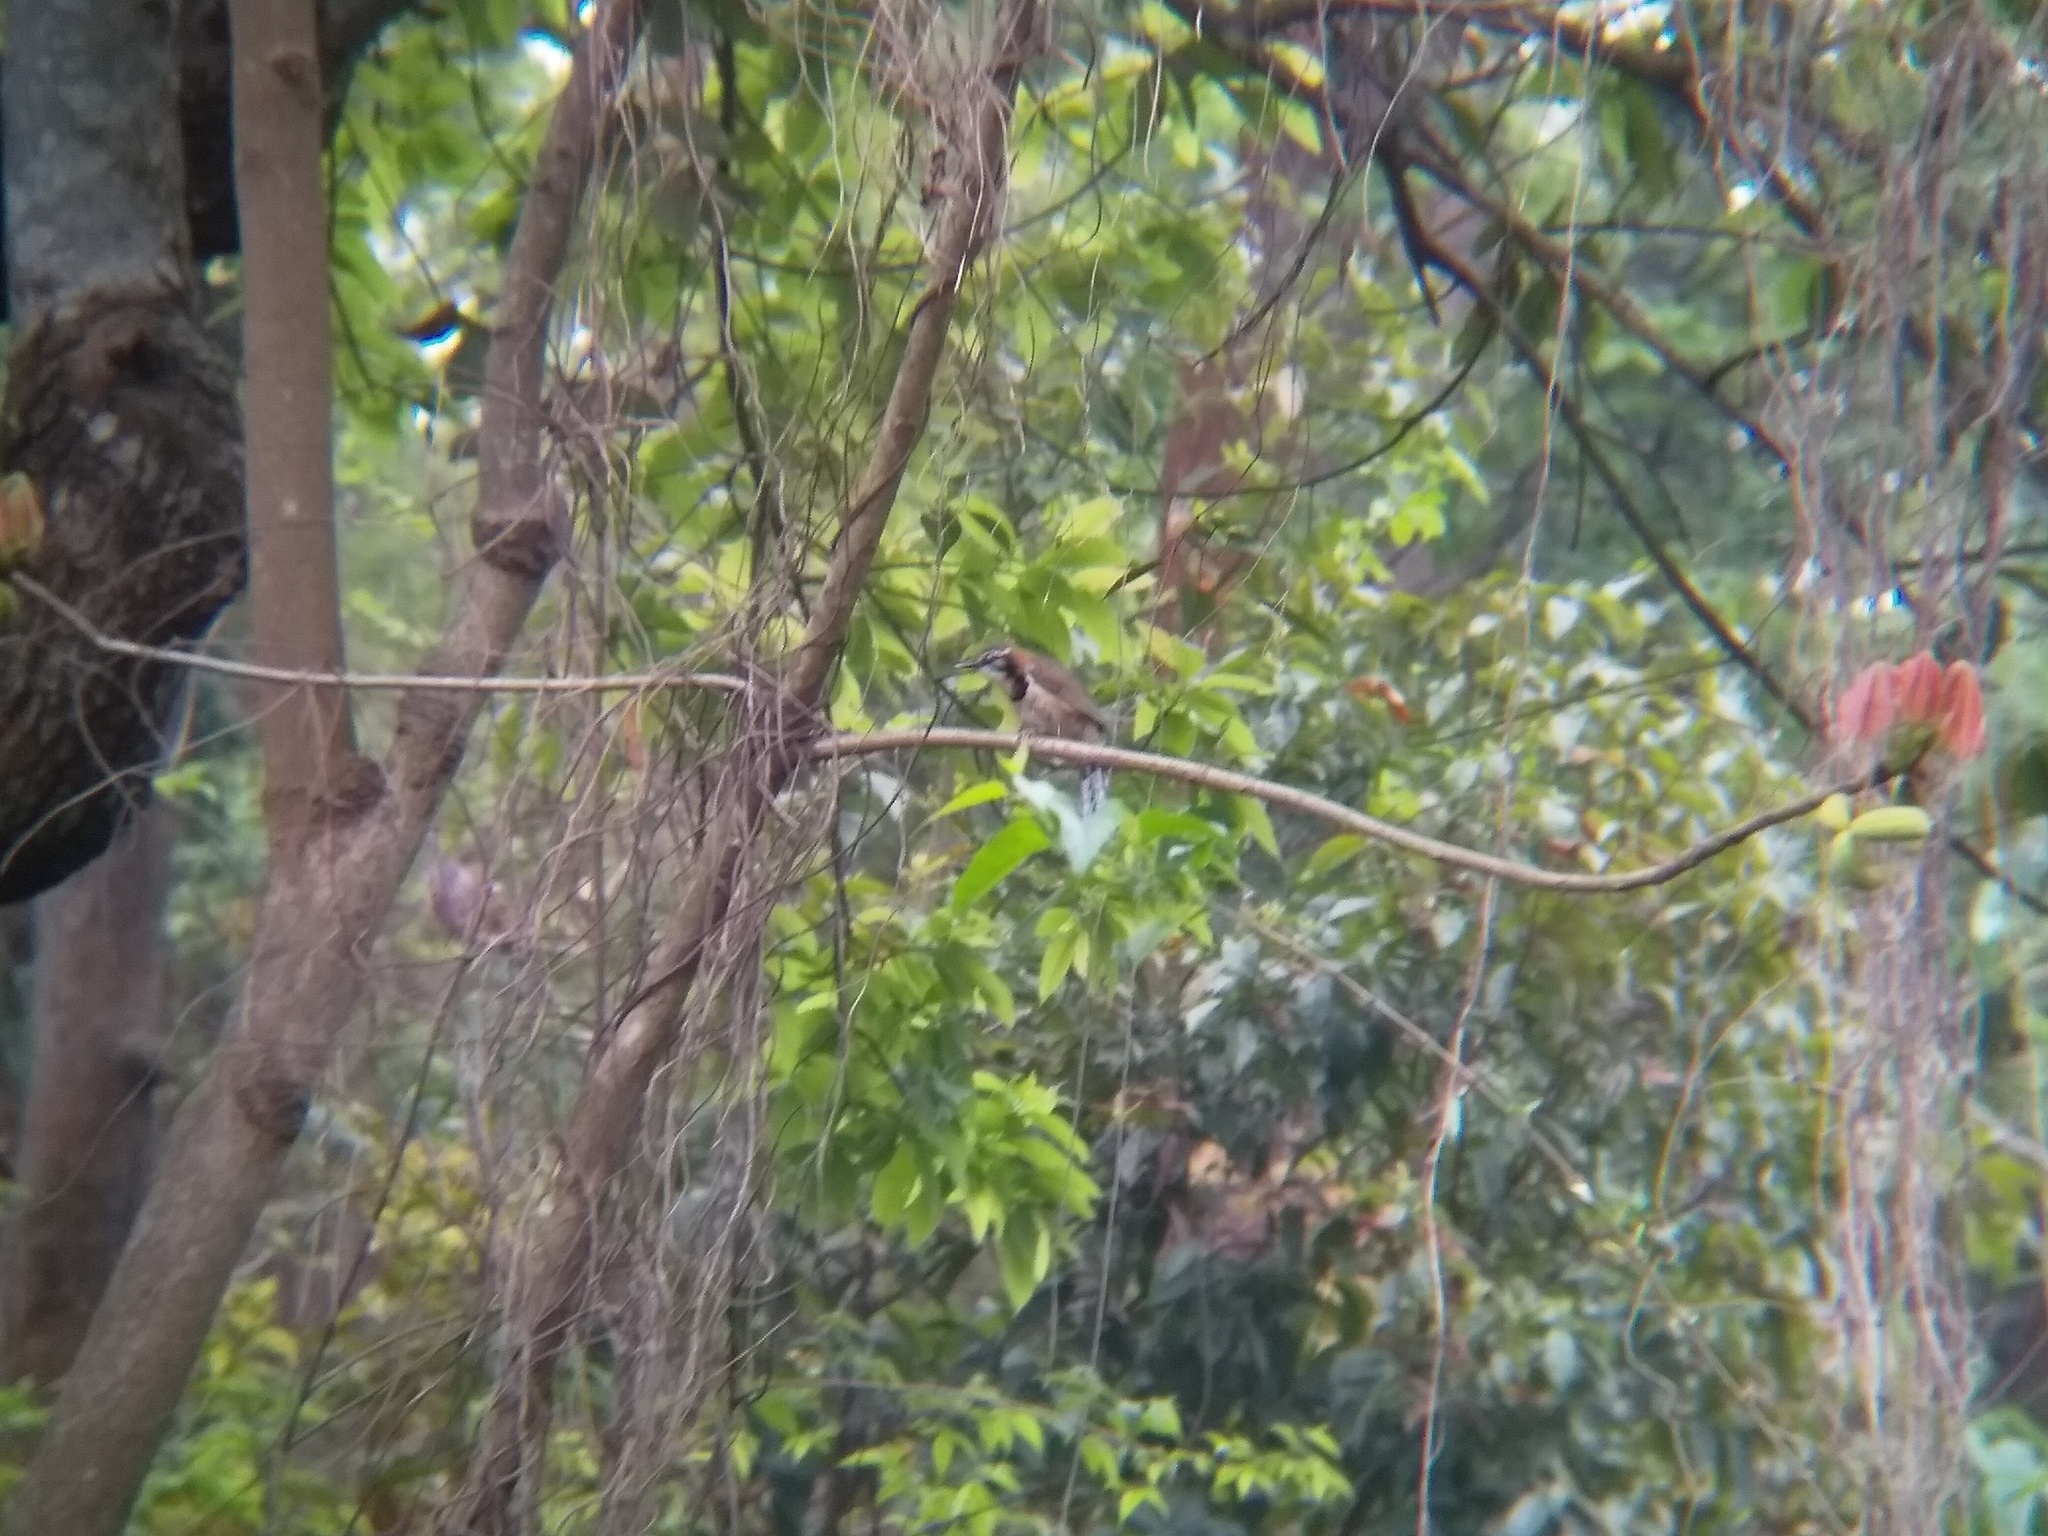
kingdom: Animalia
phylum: Chordata
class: Aves
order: Passeriformes
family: Leiothrichidae
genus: Garrulax
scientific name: Garrulax pectoralis
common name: Greater necklaced laughingthrush
